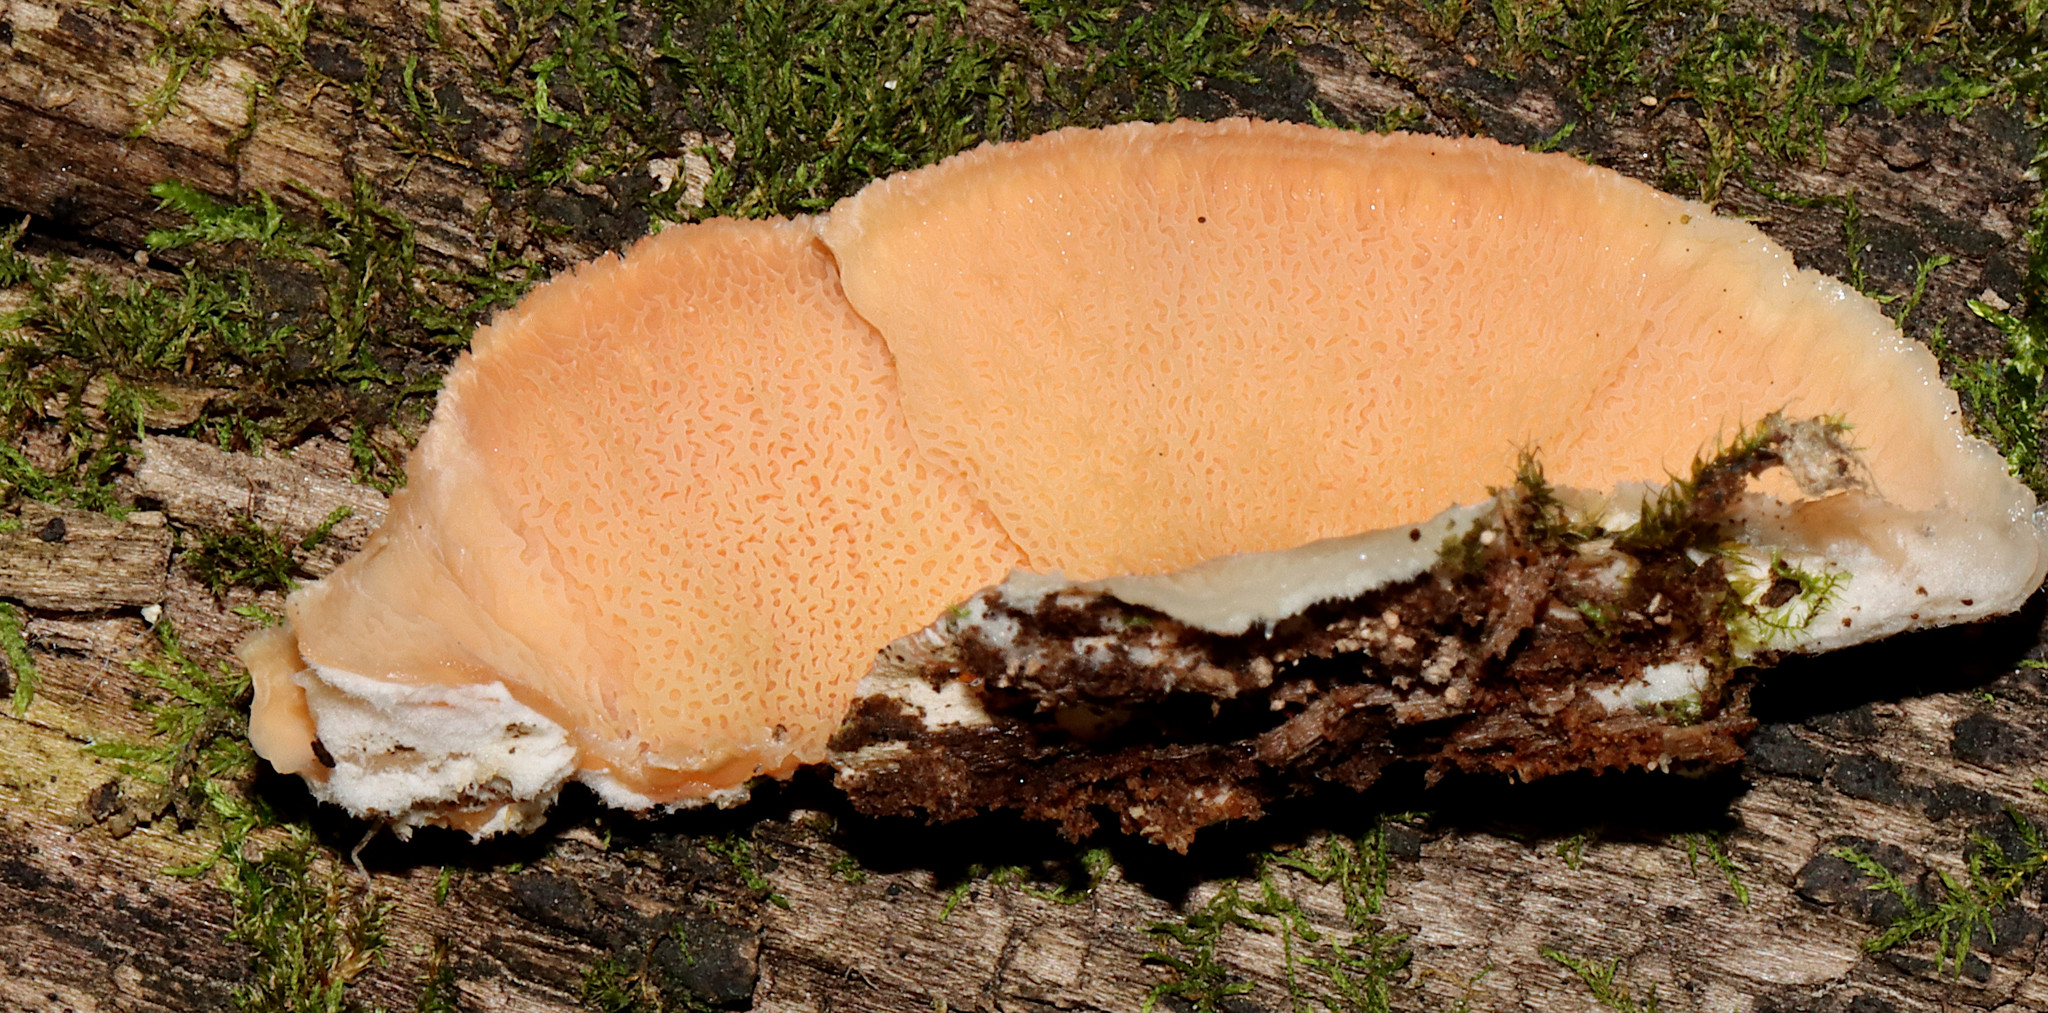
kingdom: Fungi
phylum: Basidiomycota
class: Agaricomycetes
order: Polyporales
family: Meruliaceae
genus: Phlebia
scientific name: Phlebia tremellosa
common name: Jelly rot
